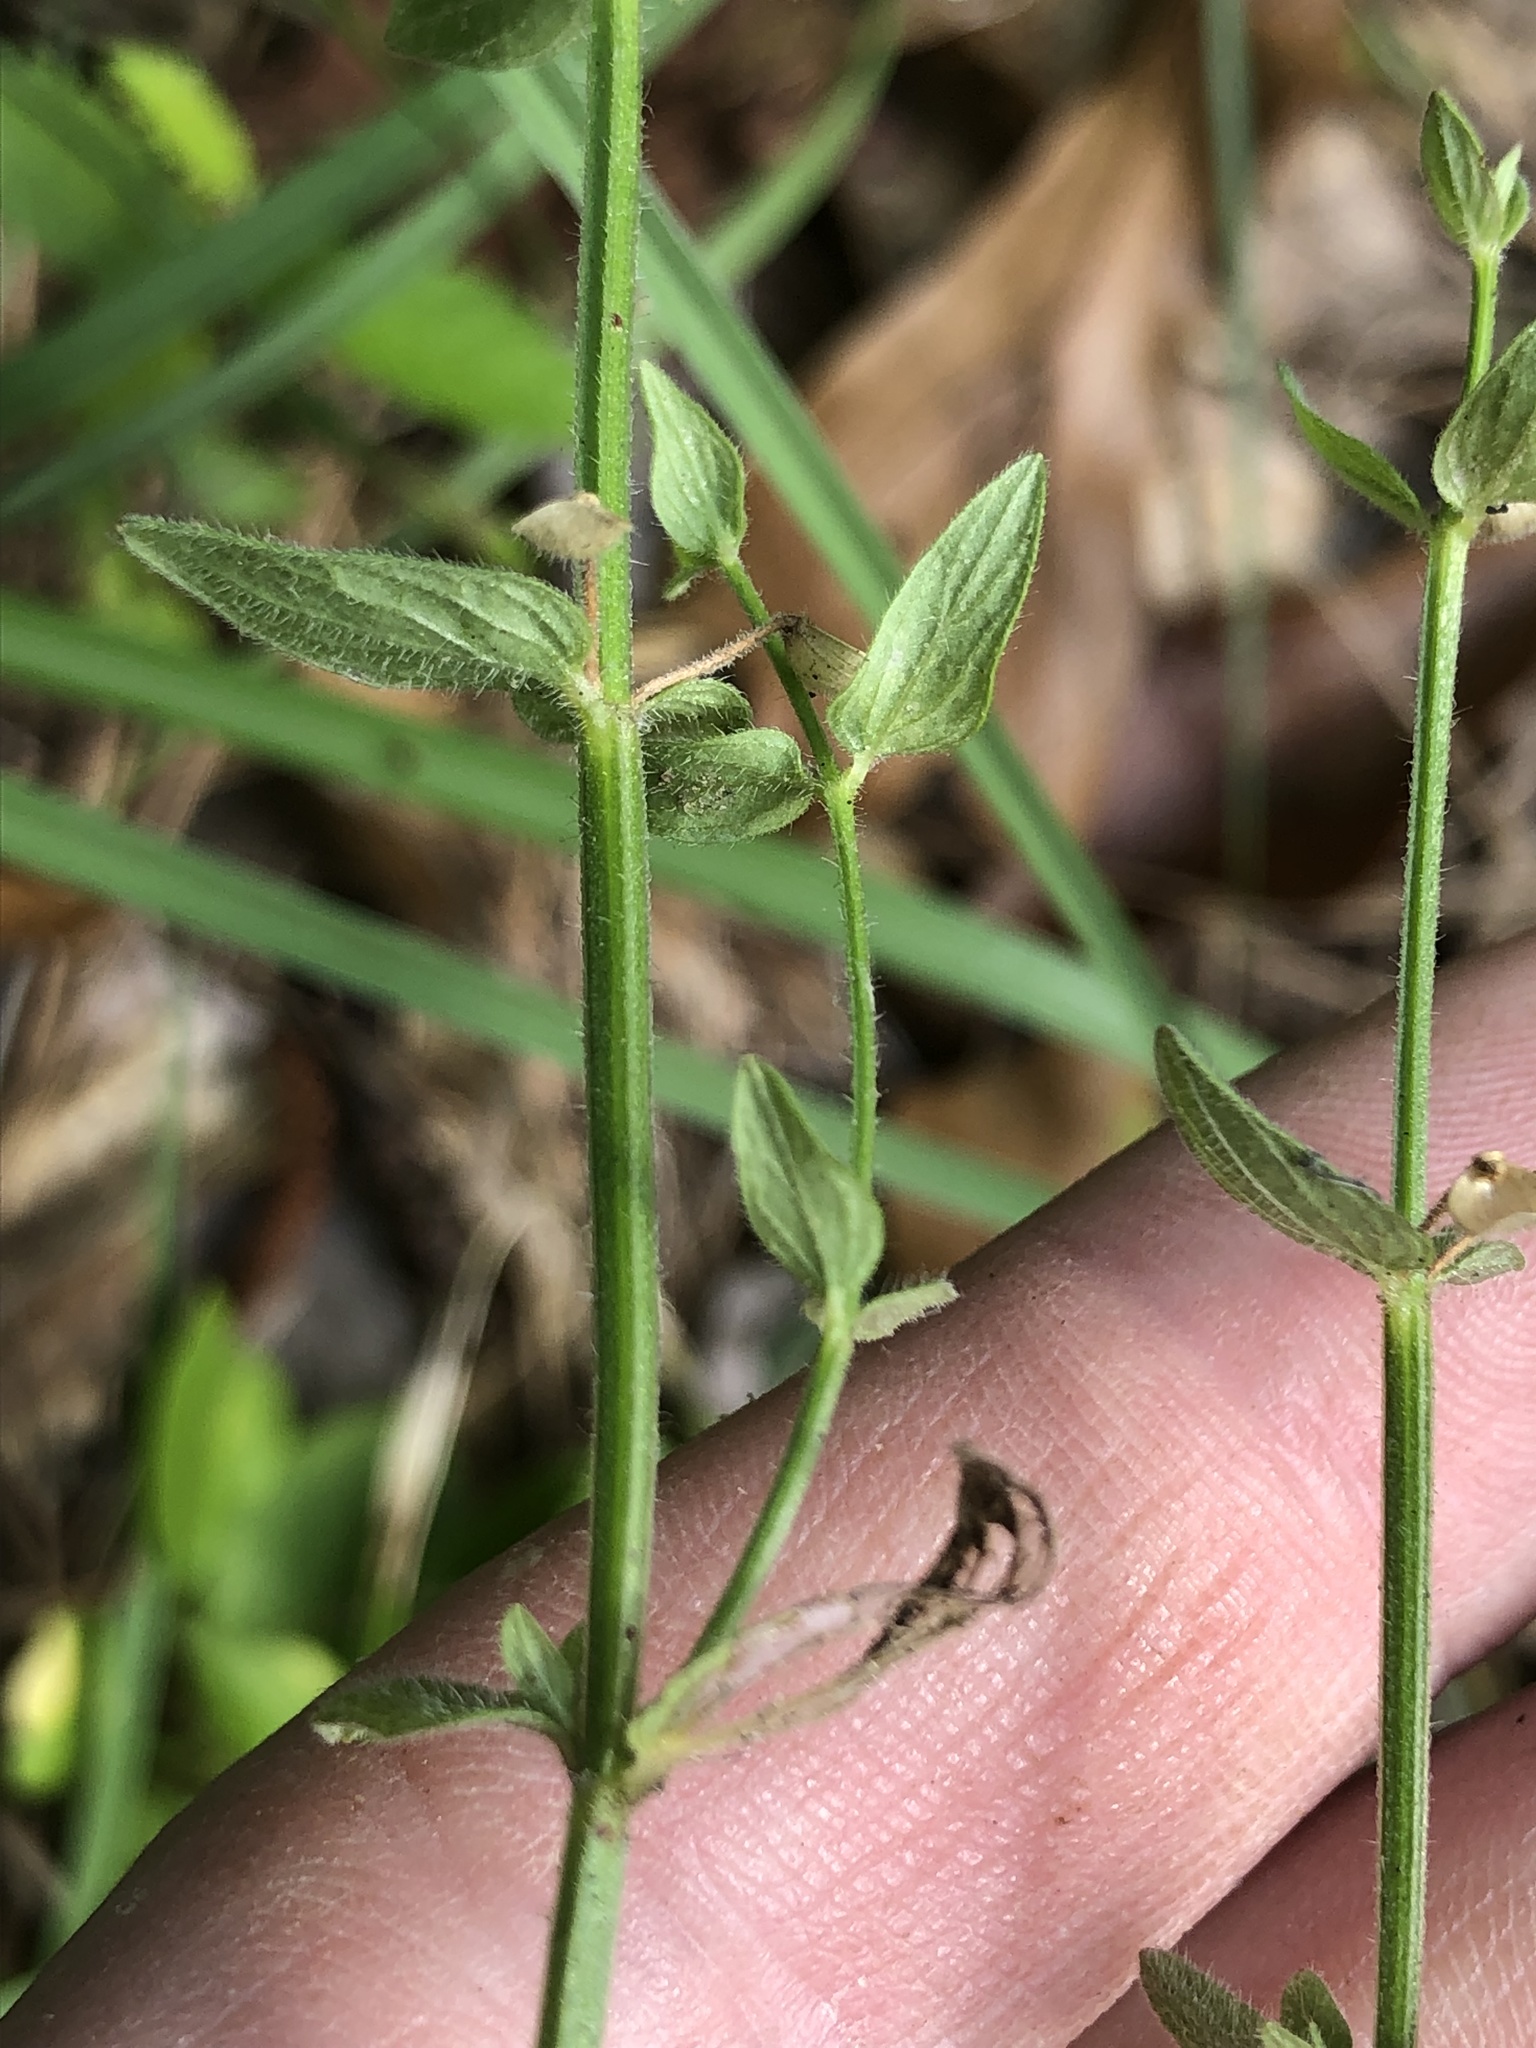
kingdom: Plantae
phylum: Tracheophyta
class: Magnoliopsida
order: Lamiales
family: Lamiaceae
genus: Scutellaria
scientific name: Scutellaria parvula
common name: Little scullcap
